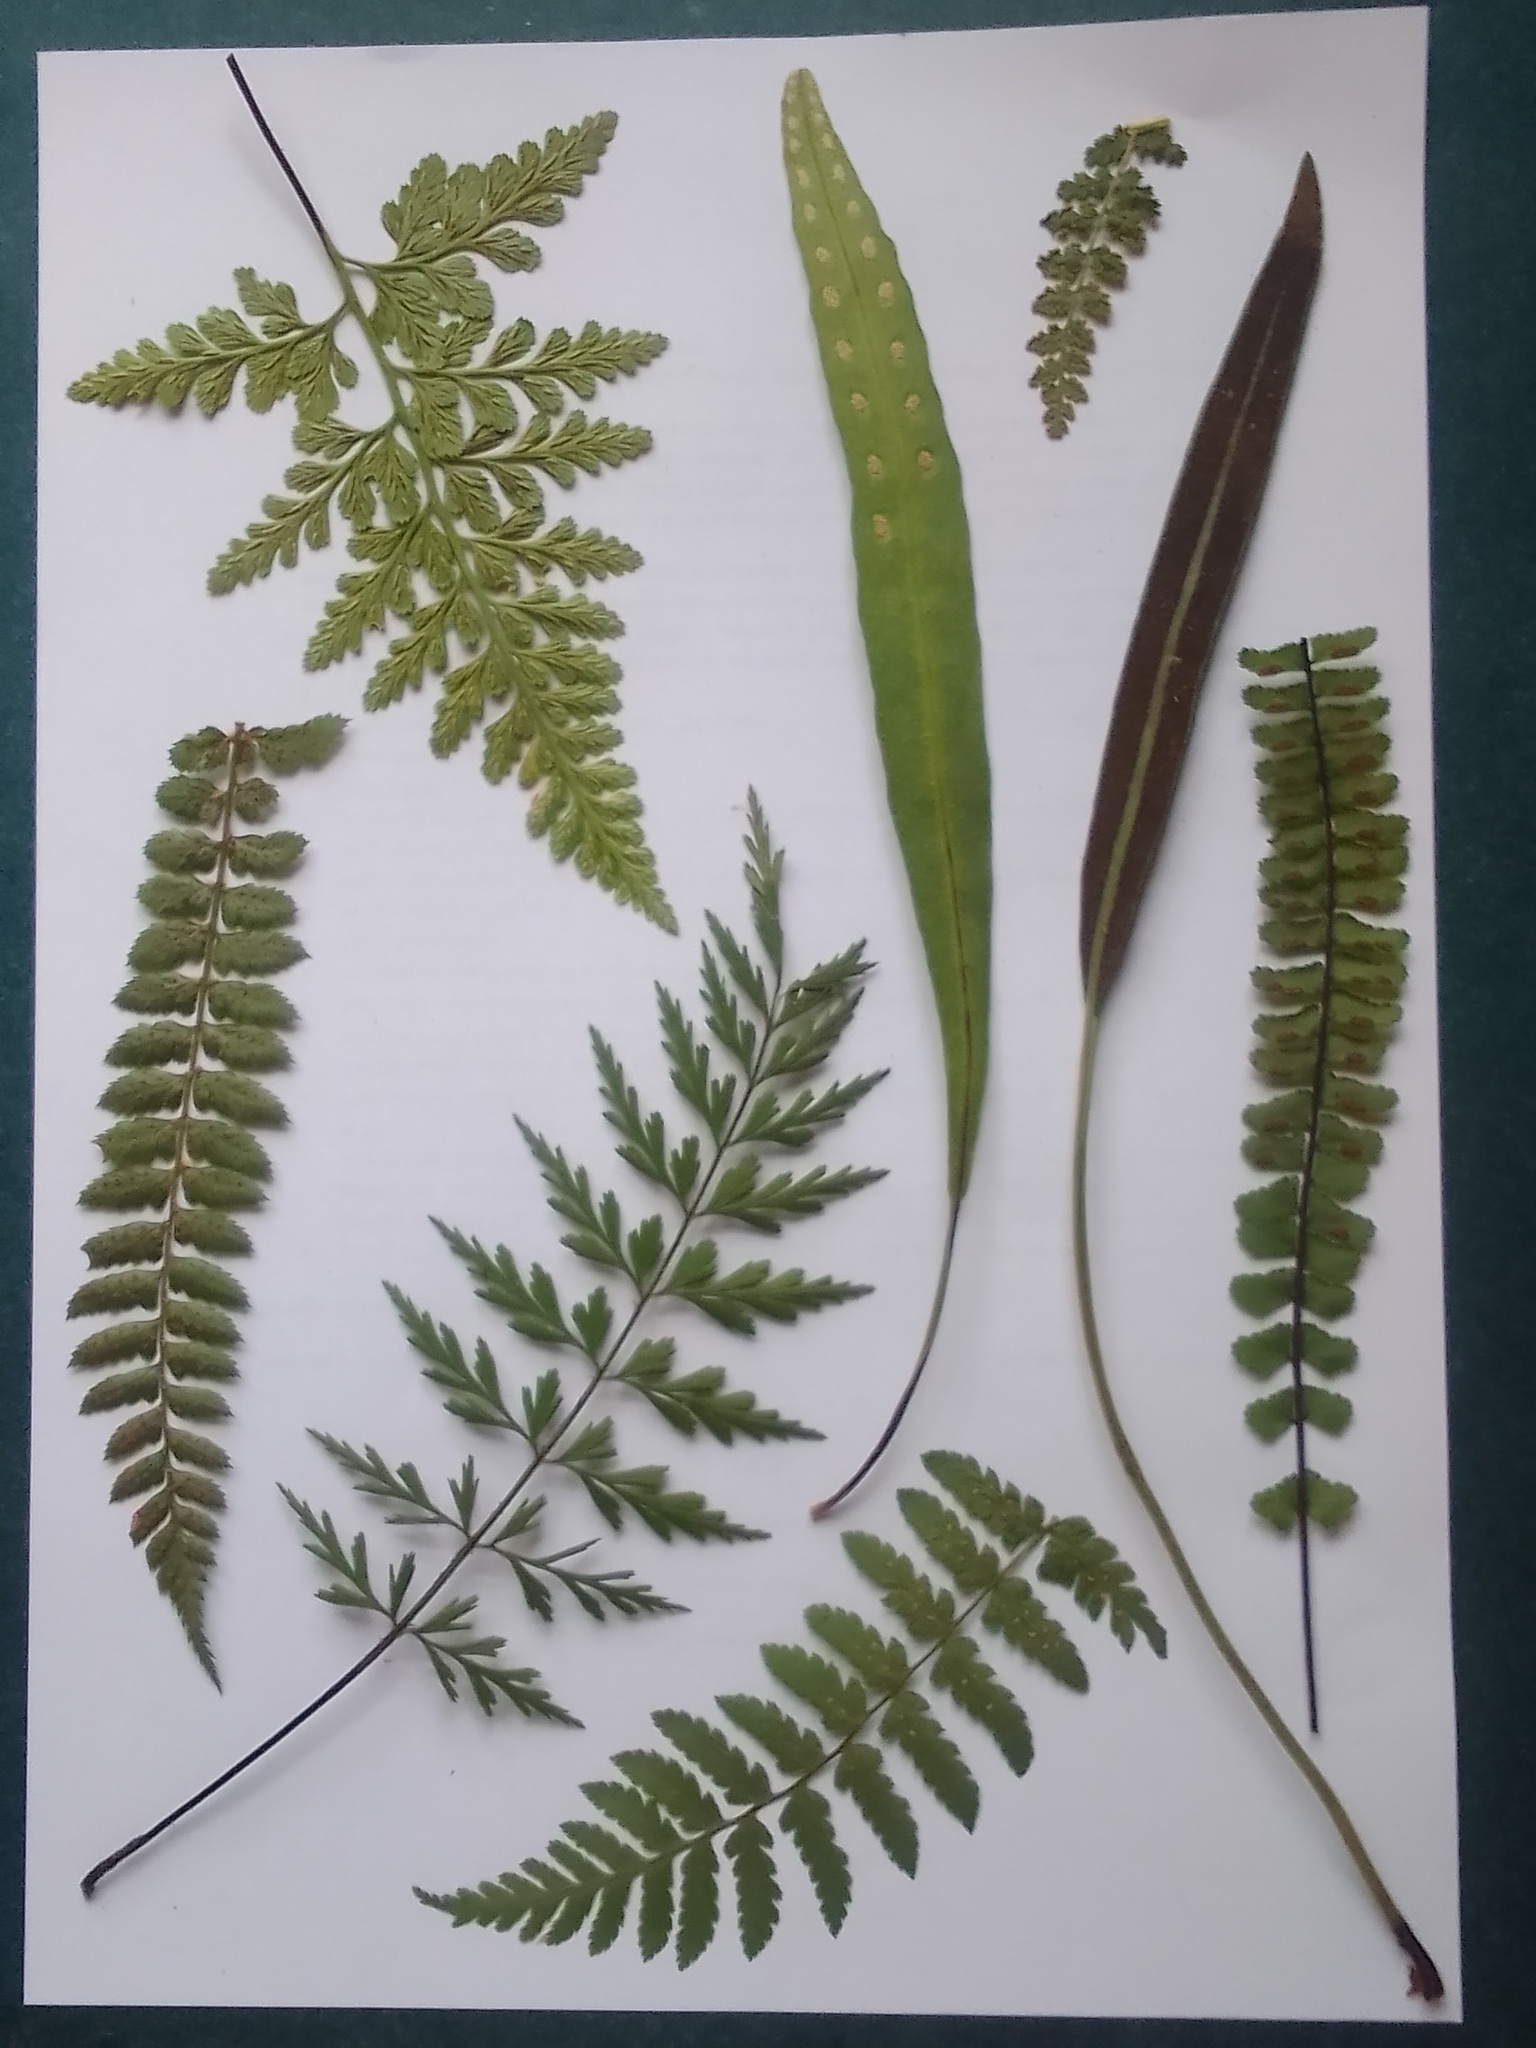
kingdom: Plantae
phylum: Tracheophyta
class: Polypodiopsida
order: Polypodiales
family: Dryopteridaceae
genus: Dryopteris
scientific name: Dryopteris inaequalis
